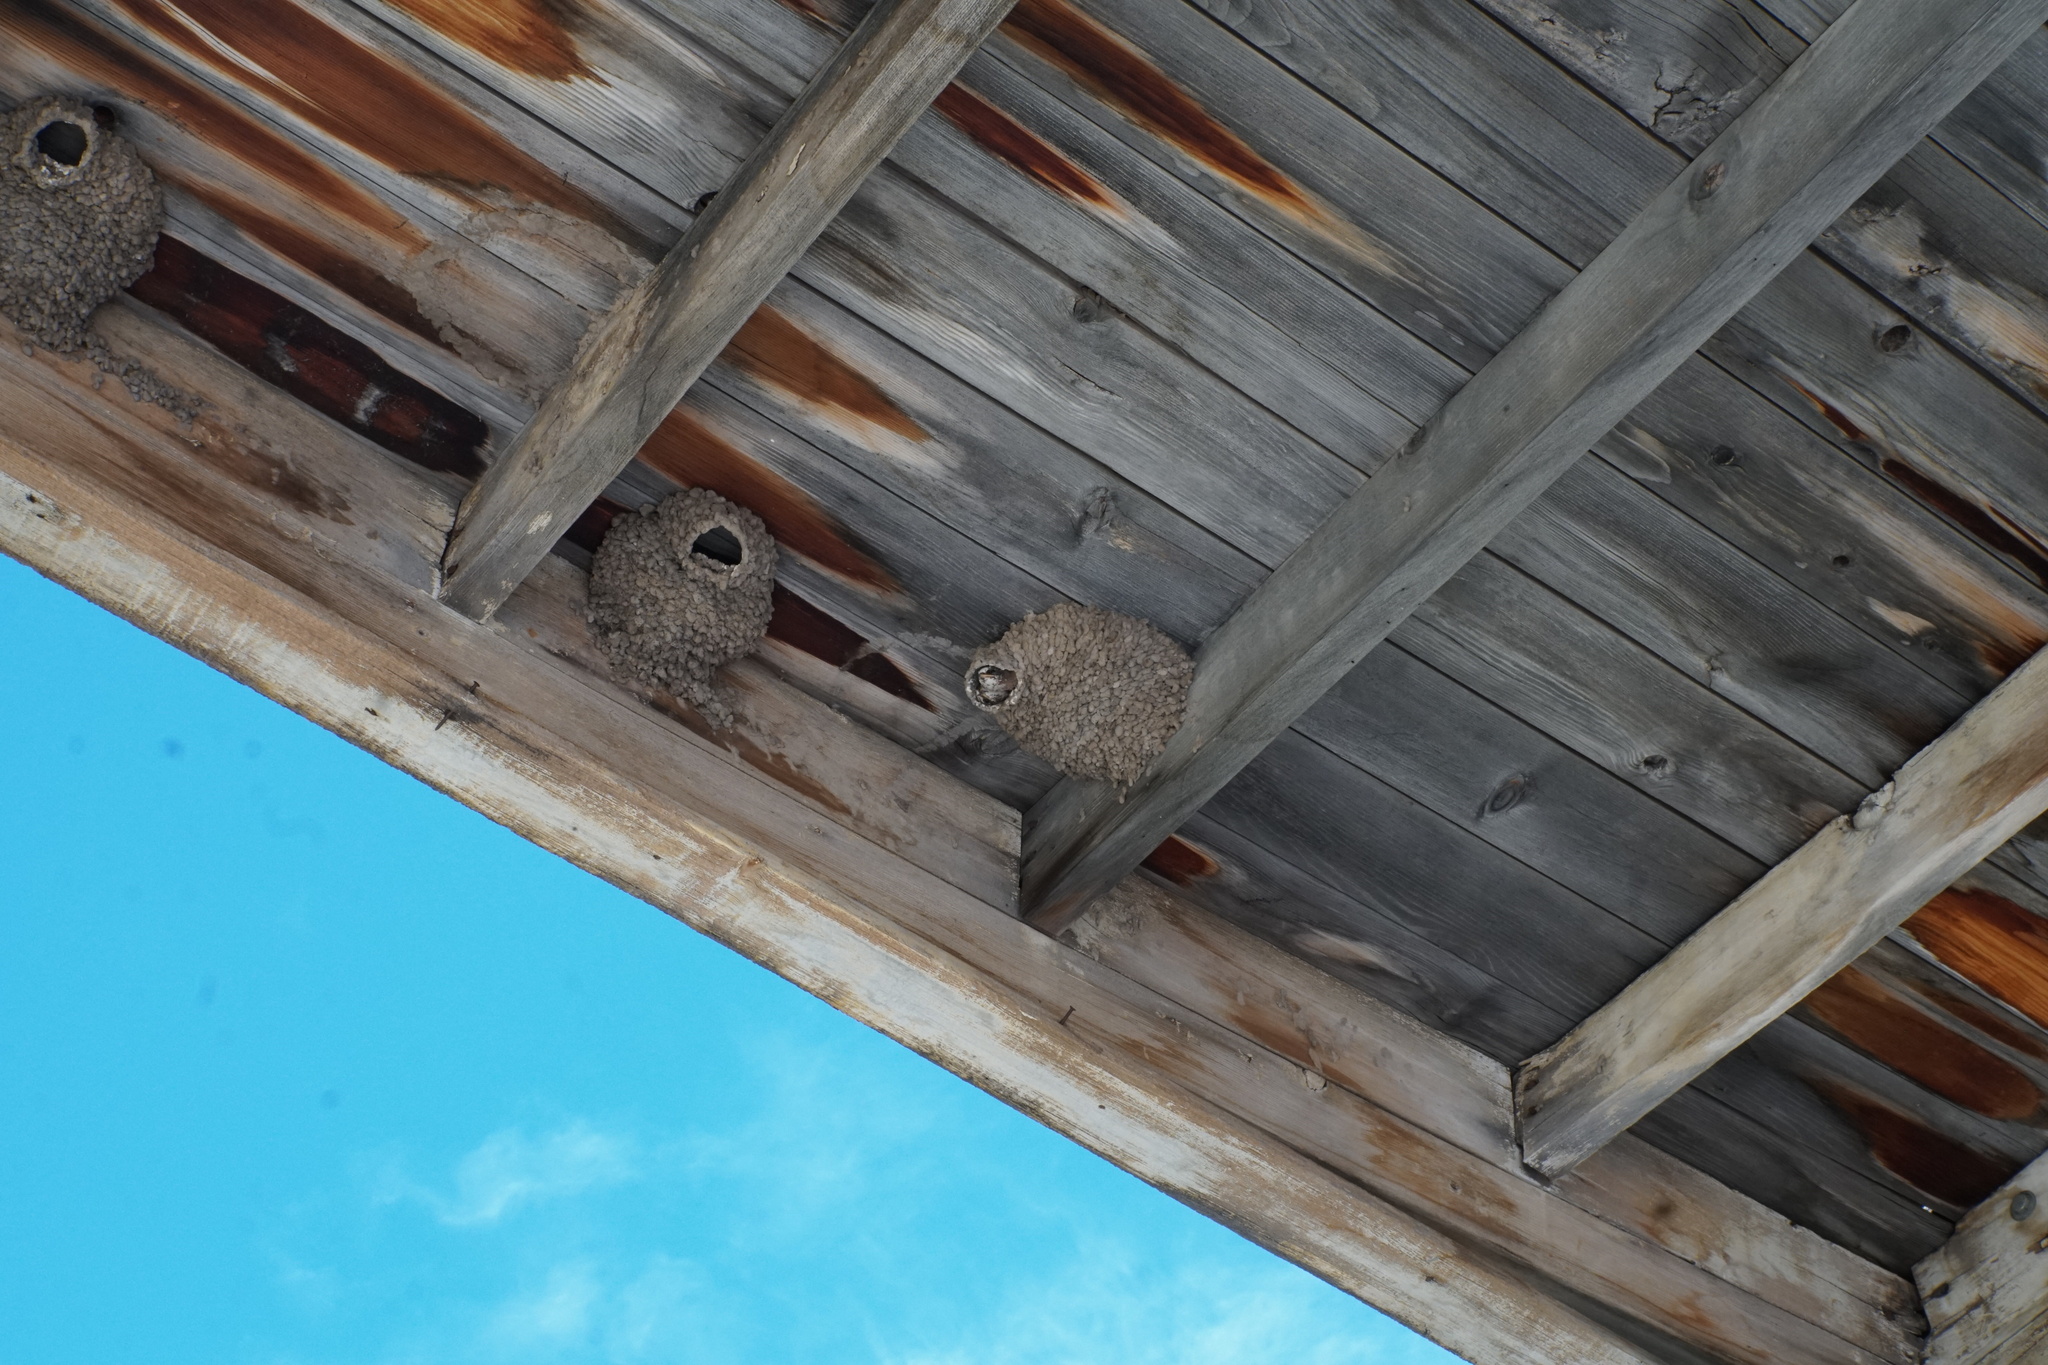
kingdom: Animalia
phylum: Chordata
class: Aves
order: Passeriformes
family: Hirundinidae
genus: Petrochelidon
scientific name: Petrochelidon pyrrhonota
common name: American cliff swallow
